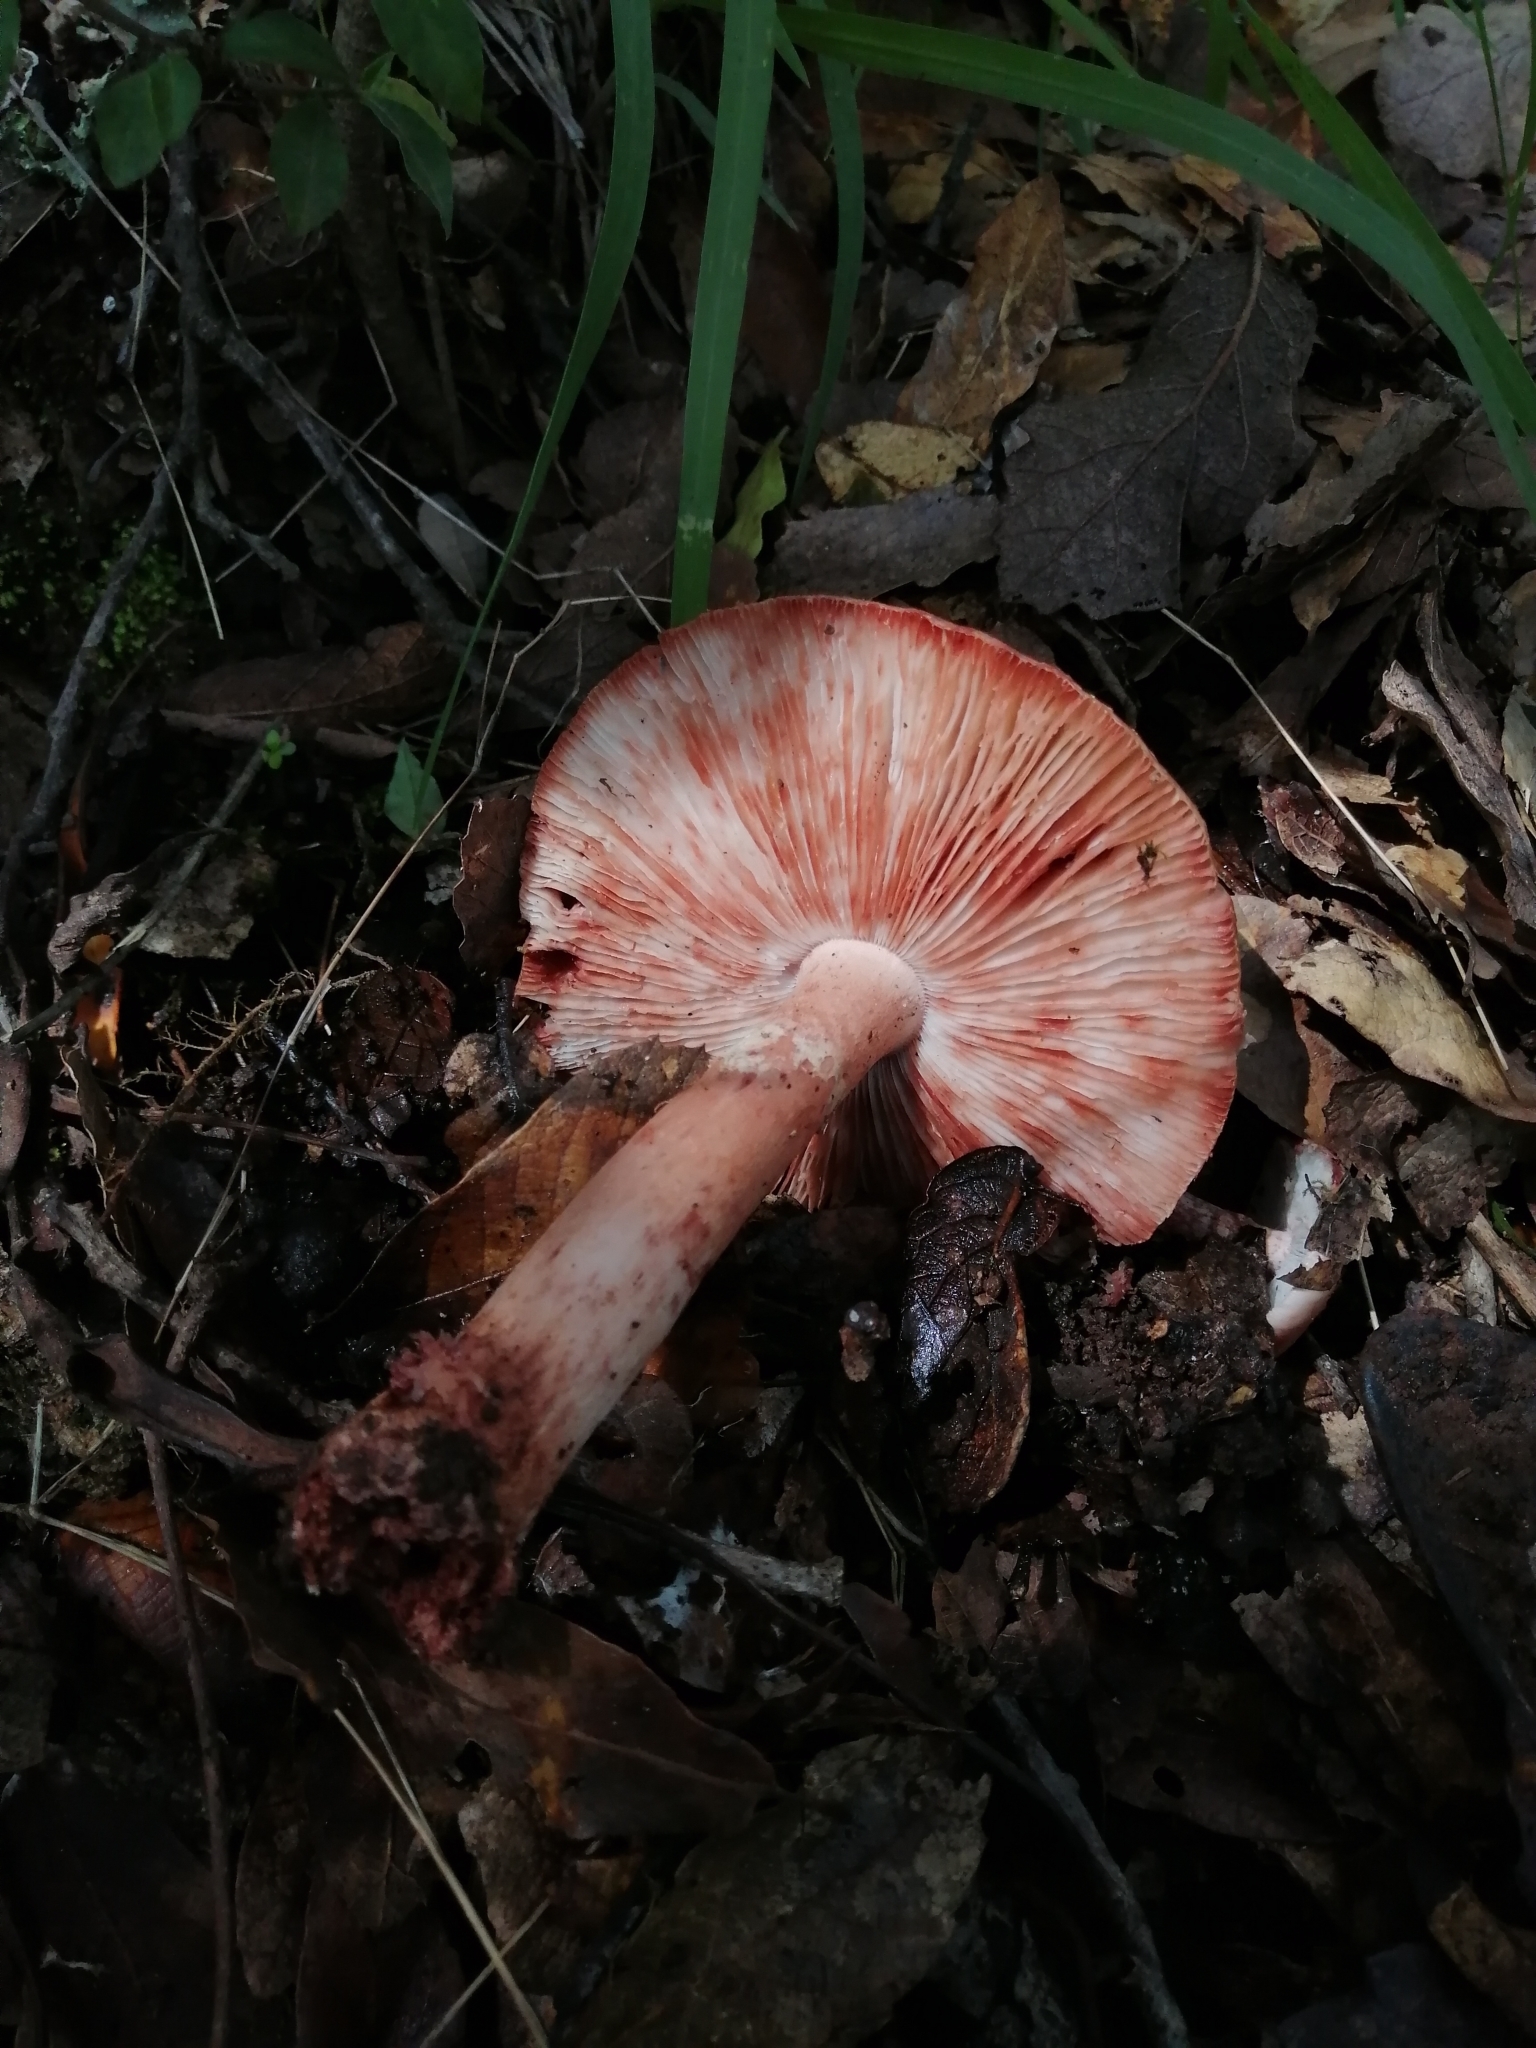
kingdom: Fungi
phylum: Basidiomycota
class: Agaricomycetes
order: Agaricales
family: Amanitaceae
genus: Amanita
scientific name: Amanita brunneolocularis
